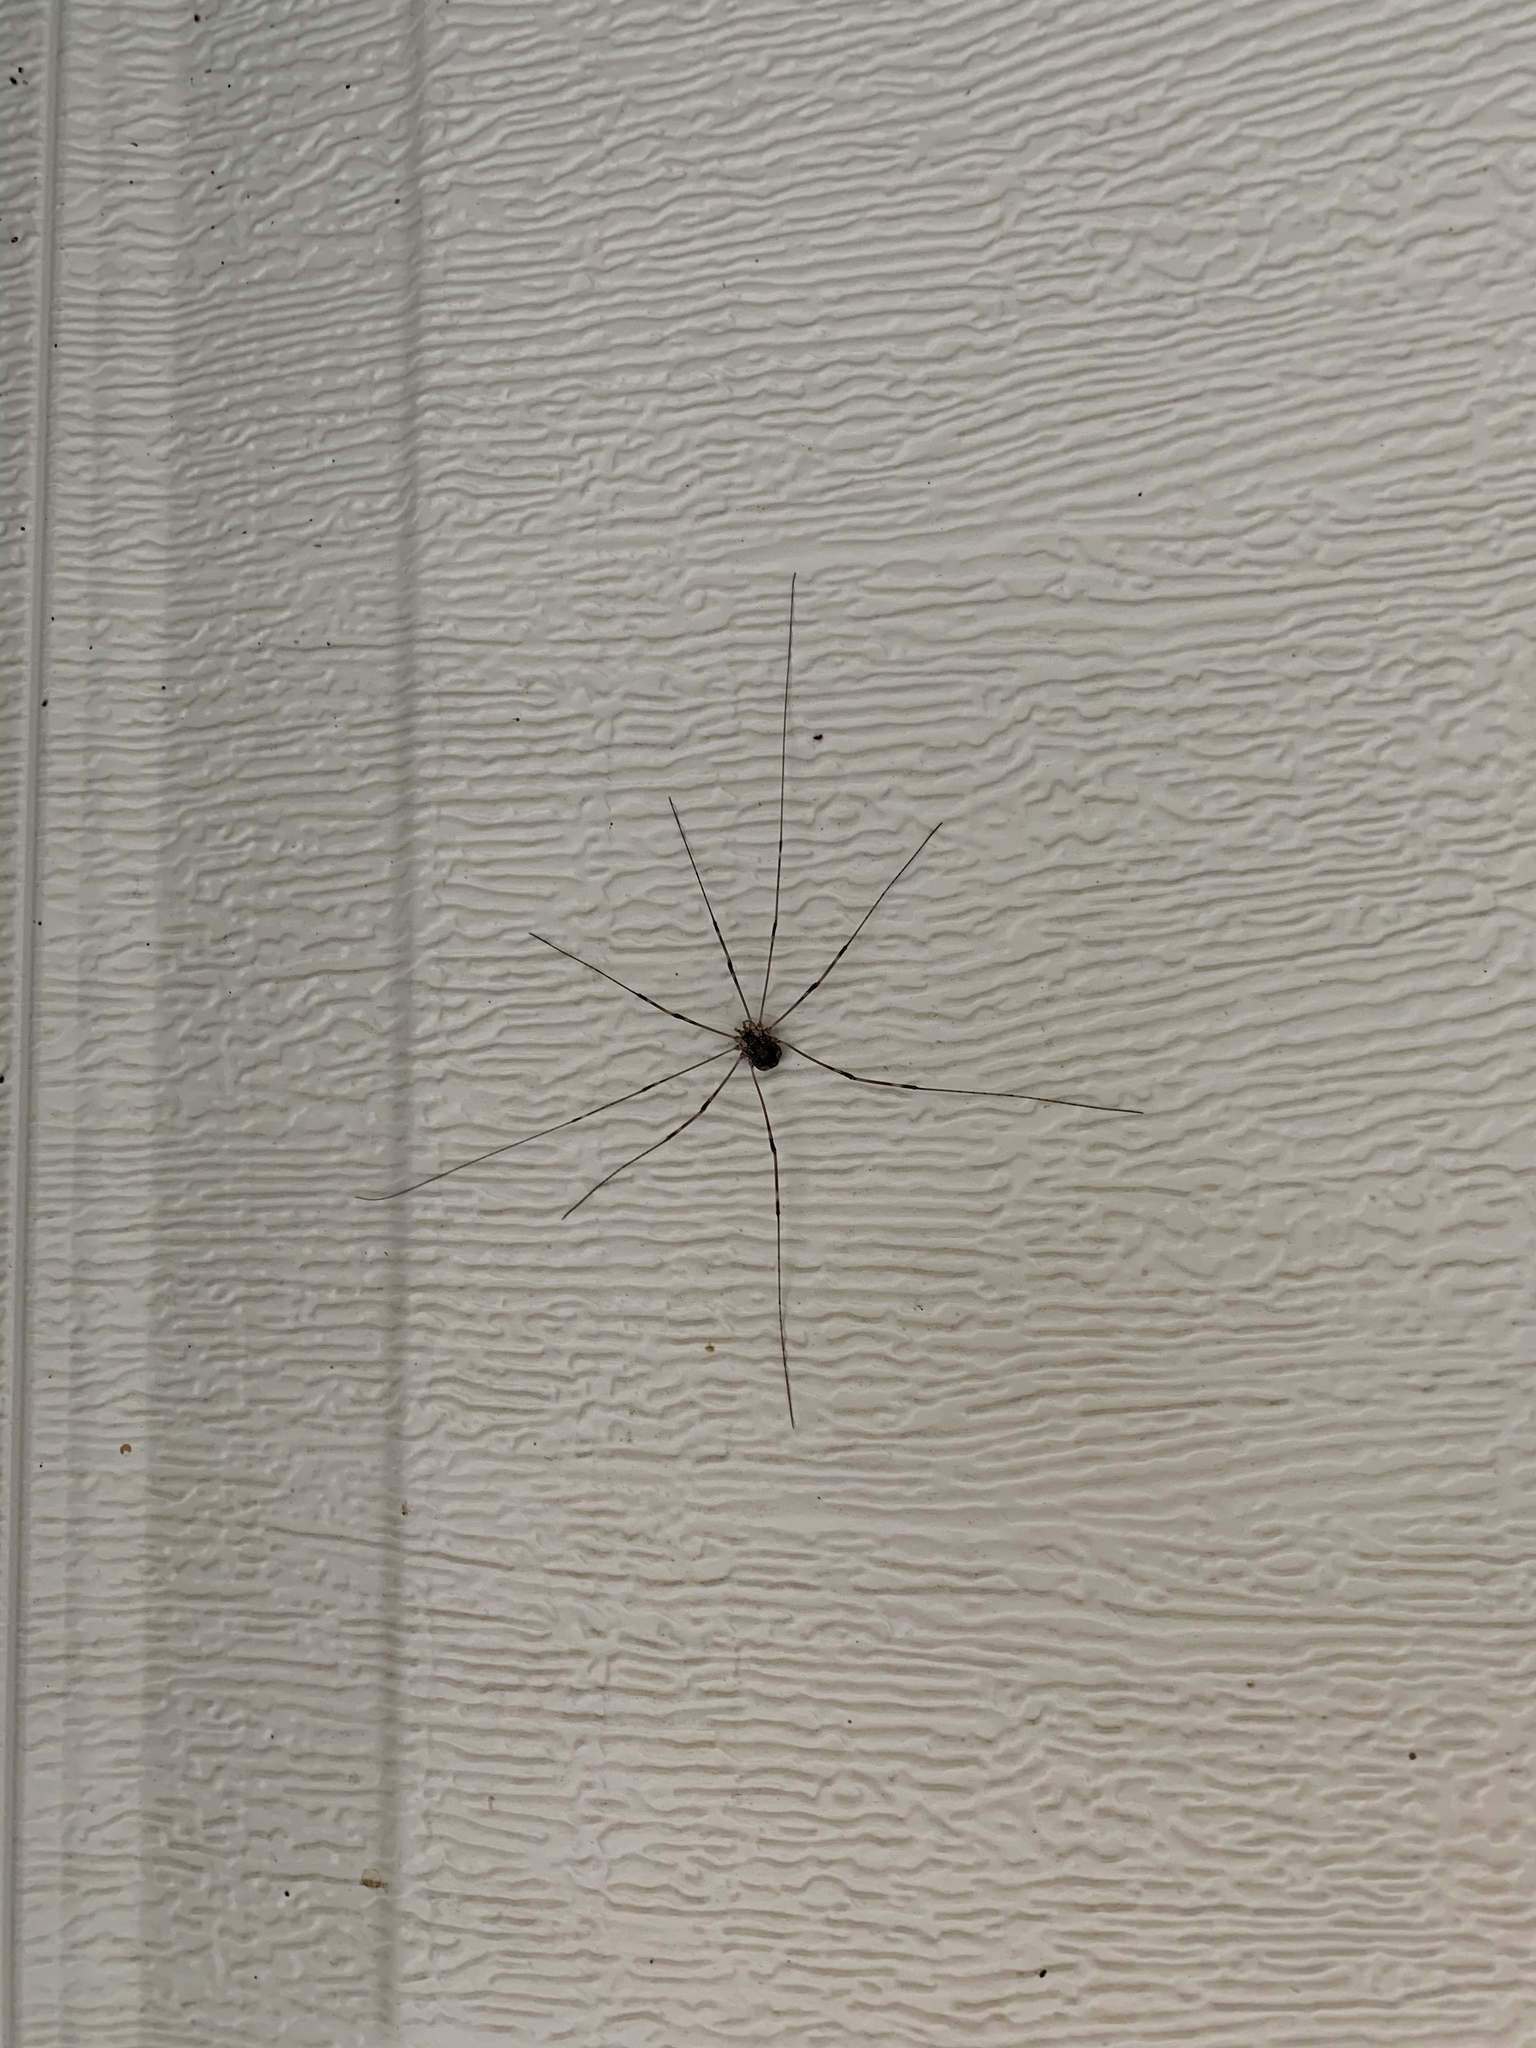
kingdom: Animalia
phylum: Arthropoda
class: Arachnida
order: Opiliones
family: Sclerosomatidae
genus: Leiobunum
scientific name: Leiobunum townsendi
